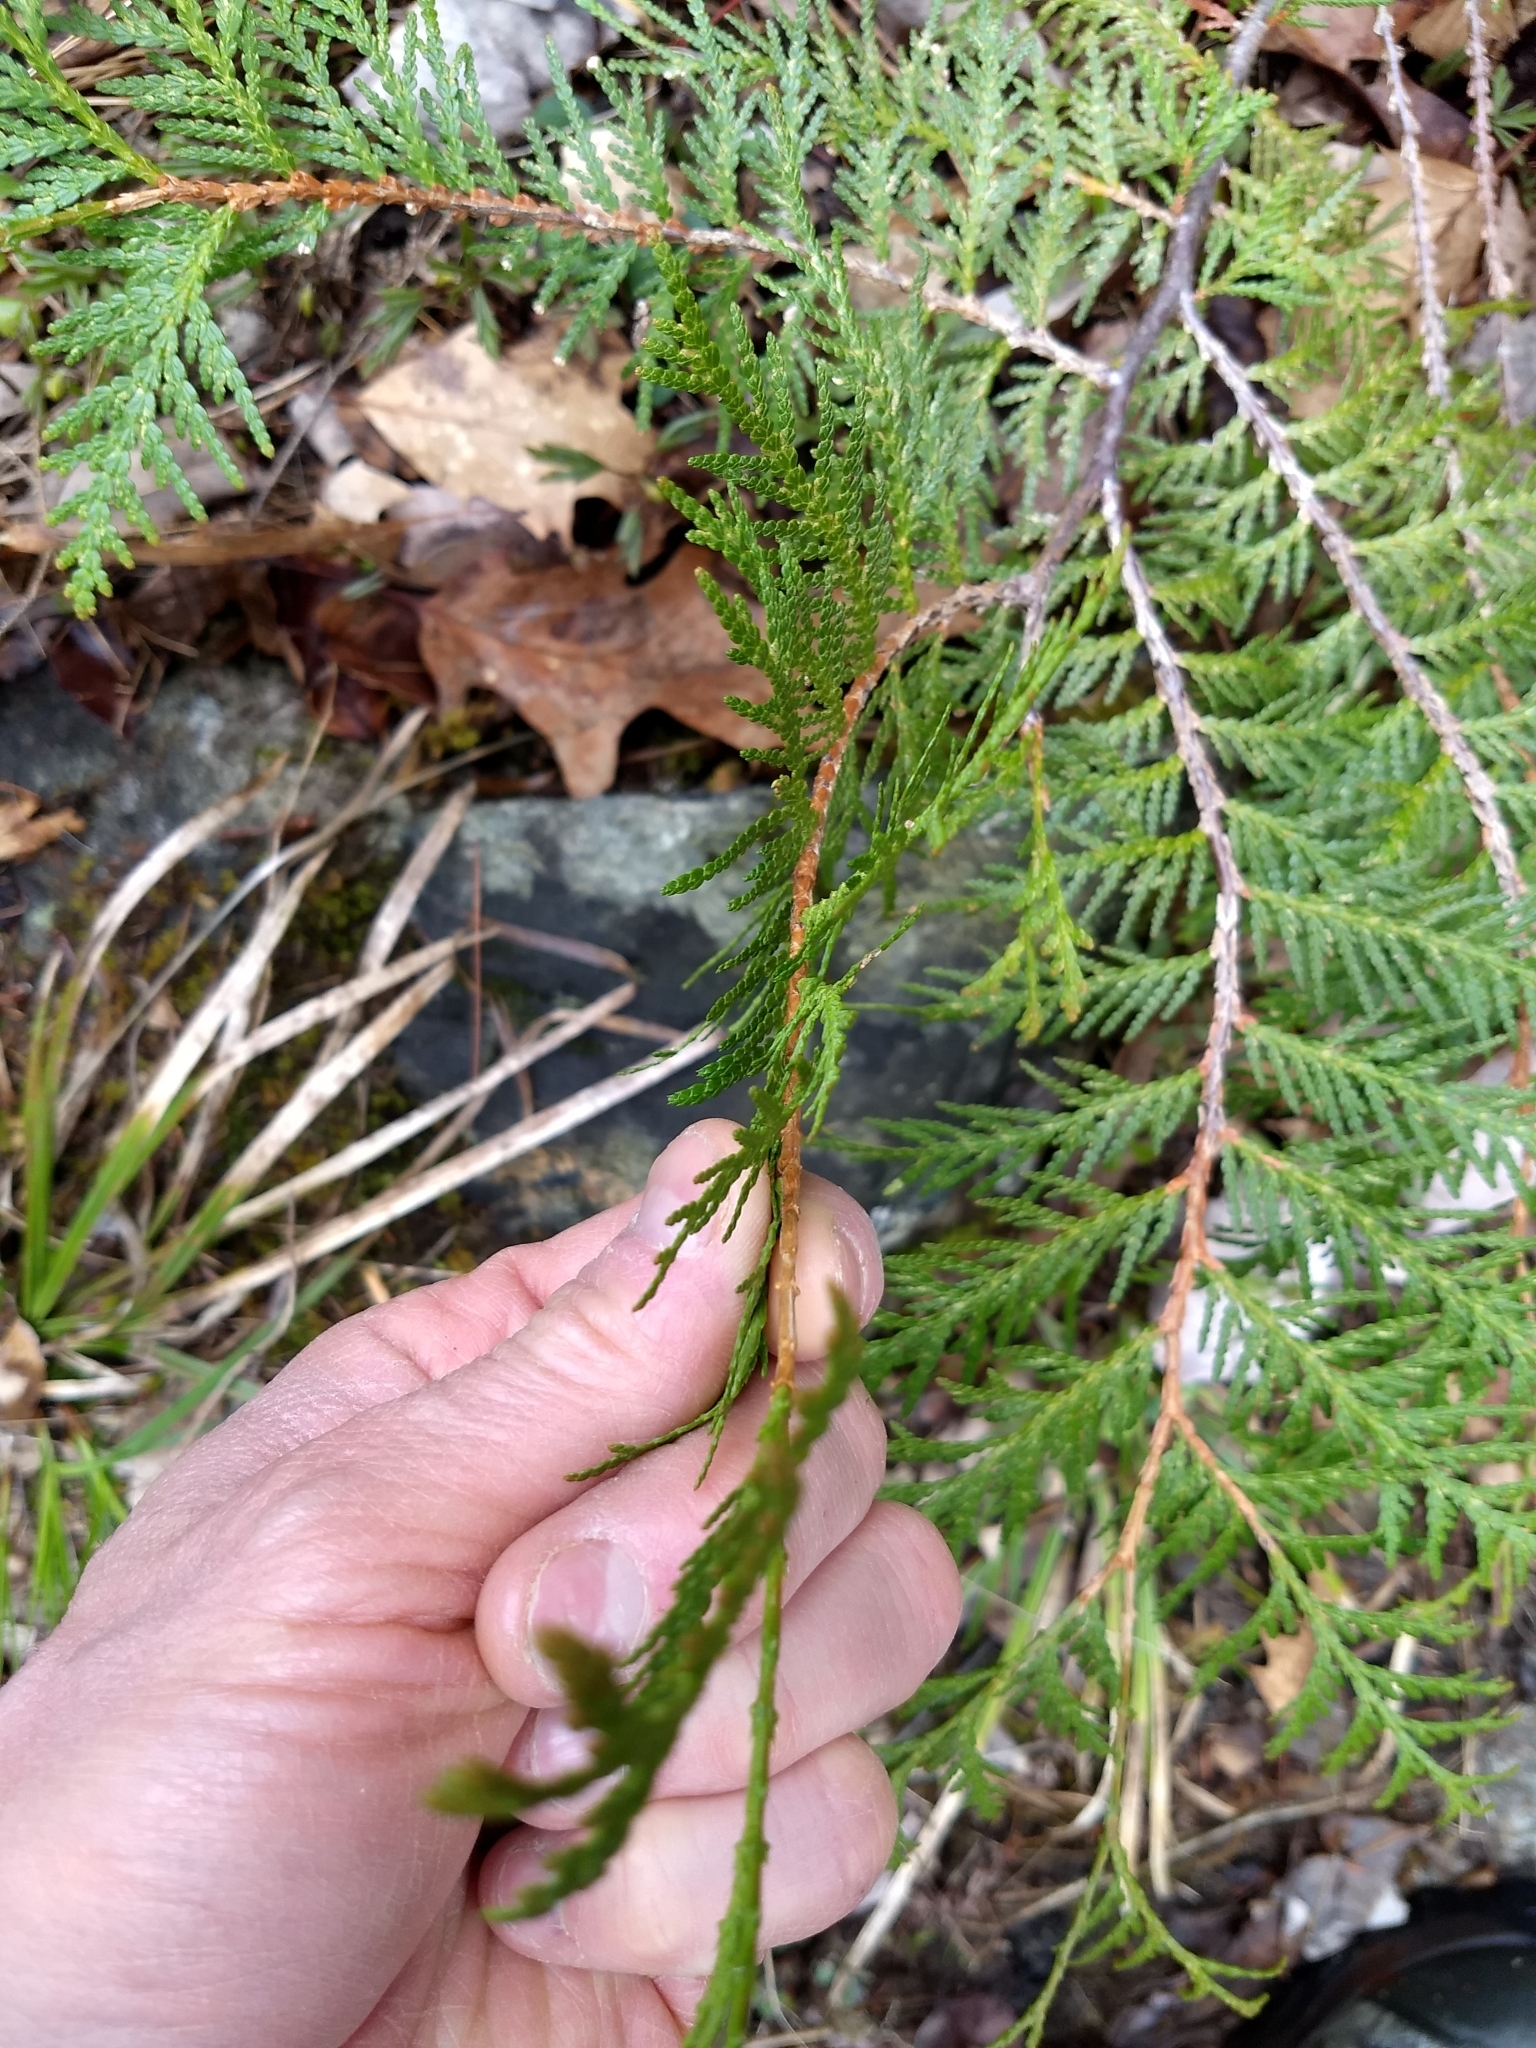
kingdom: Plantae
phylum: Tracheophyta
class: Pinopsida
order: Pinales
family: Cupressaceae
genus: Thuja
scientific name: Thuja occidentalis
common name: Northern white-cedar
